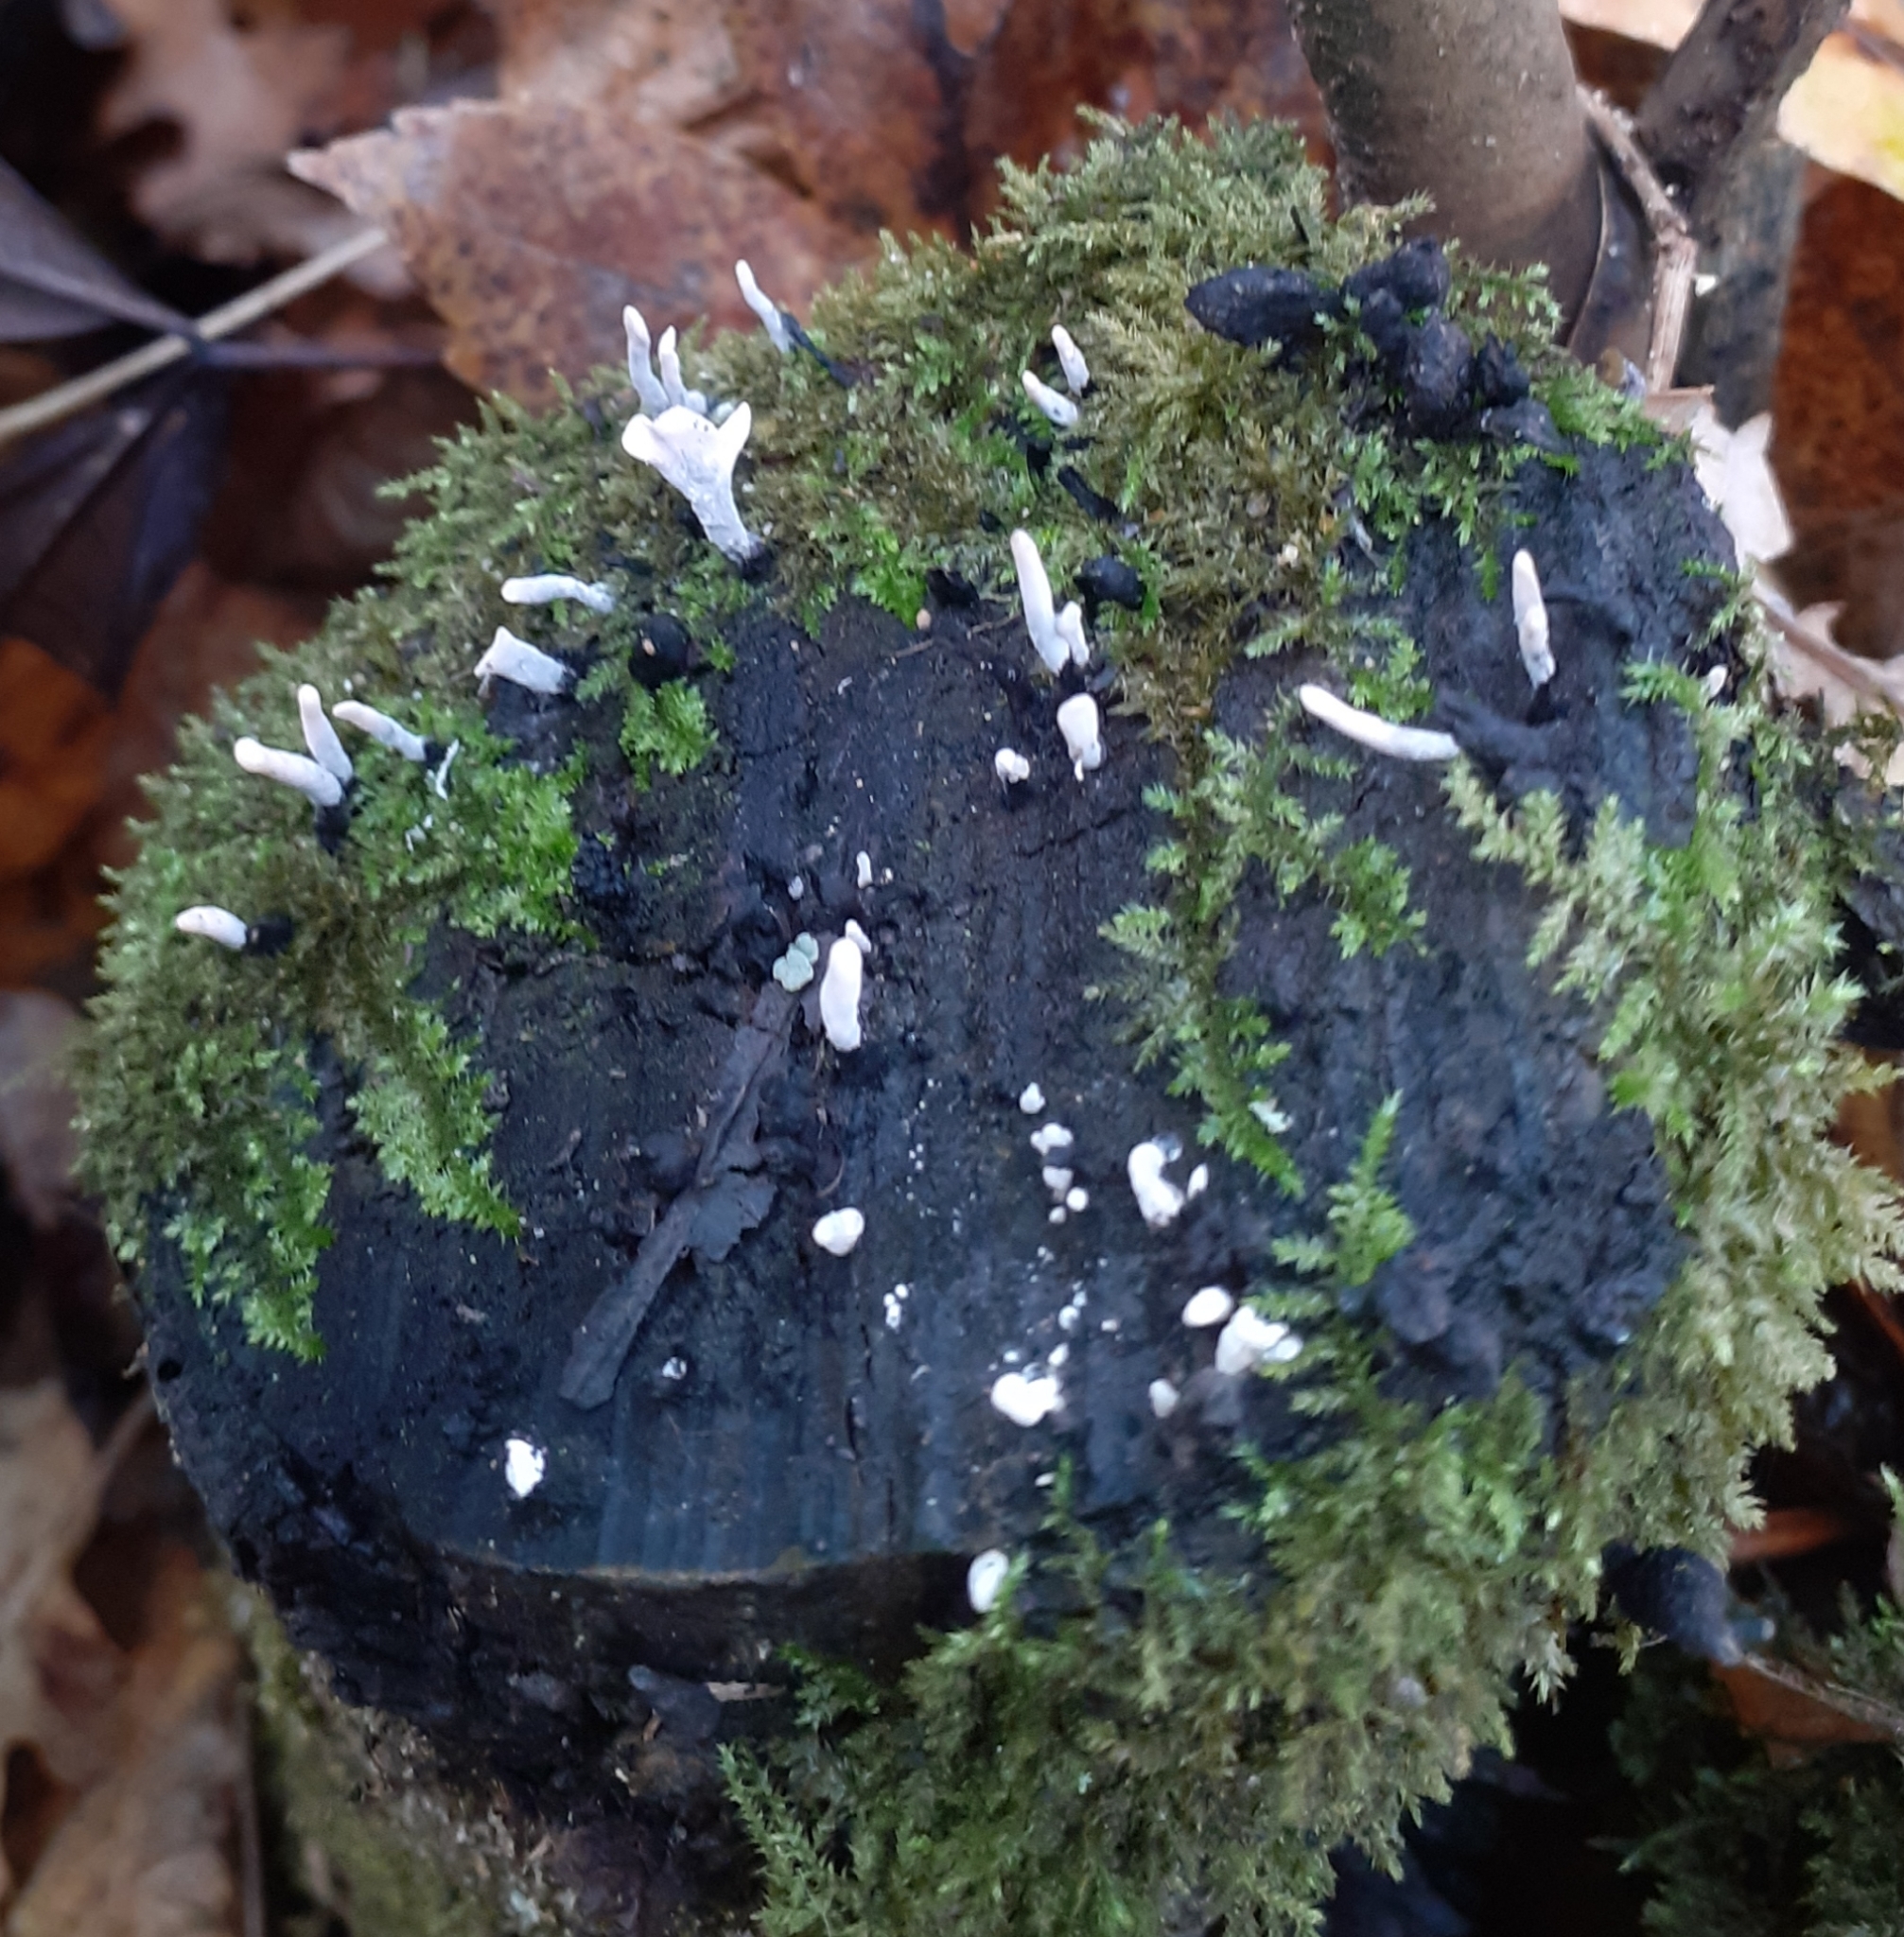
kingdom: Fungi
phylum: Ascomycota
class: Sordariomycetes
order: Xylariales
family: Xylariaceae
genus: Xylaria
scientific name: Xylaria hypoxylon
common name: Candle-snuff fungus
